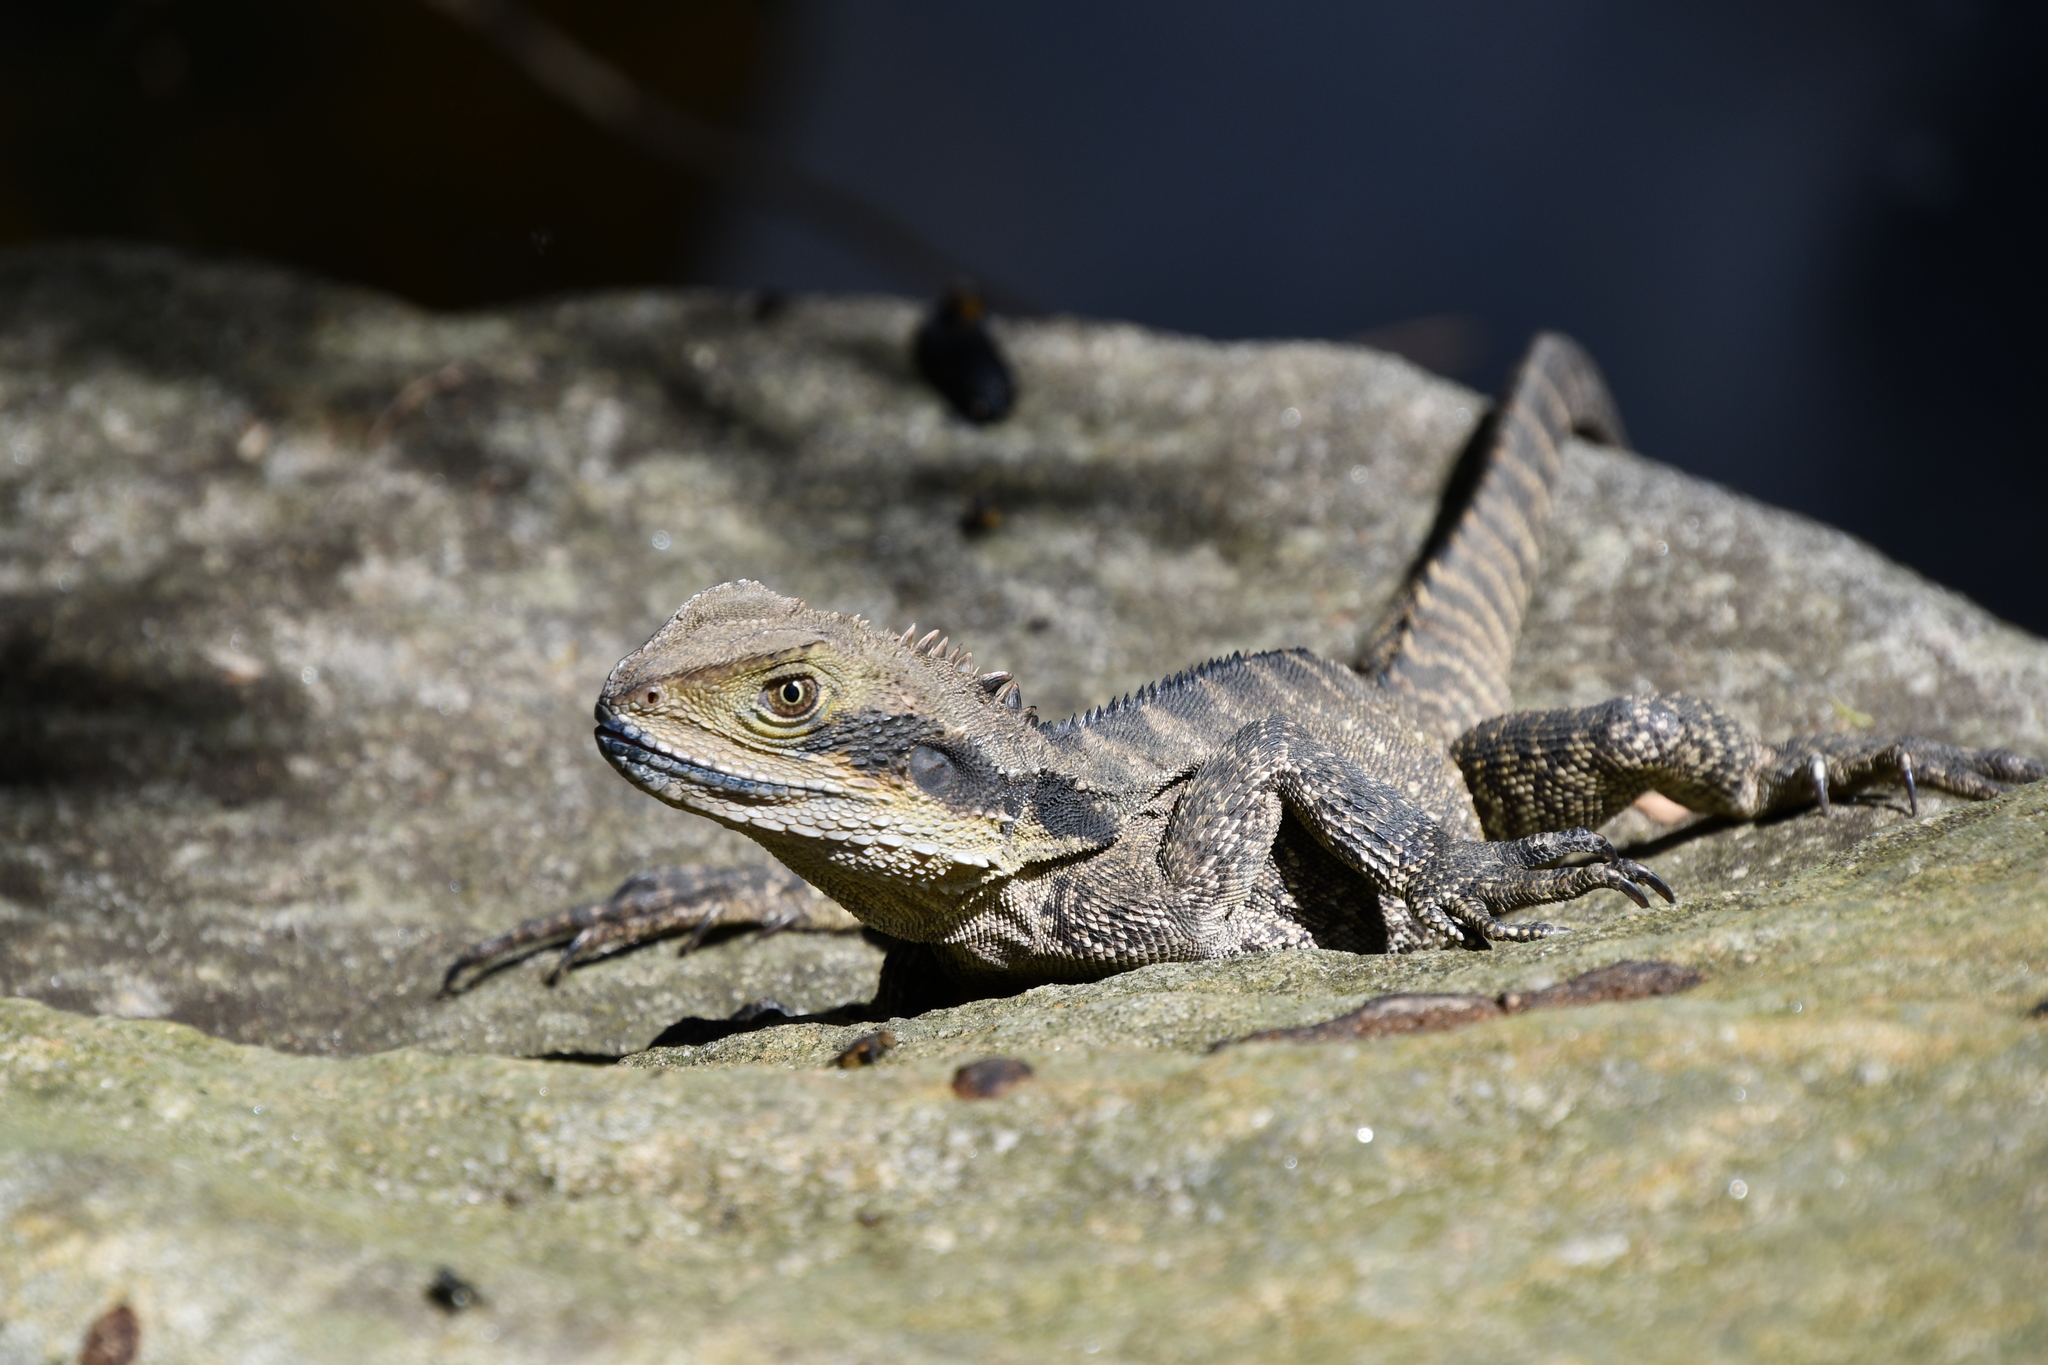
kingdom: Animalia
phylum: Chordata
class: Squamata
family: Agamidae
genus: Intellagama
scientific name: Intellagama lesueurii
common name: Eastern water dragon
